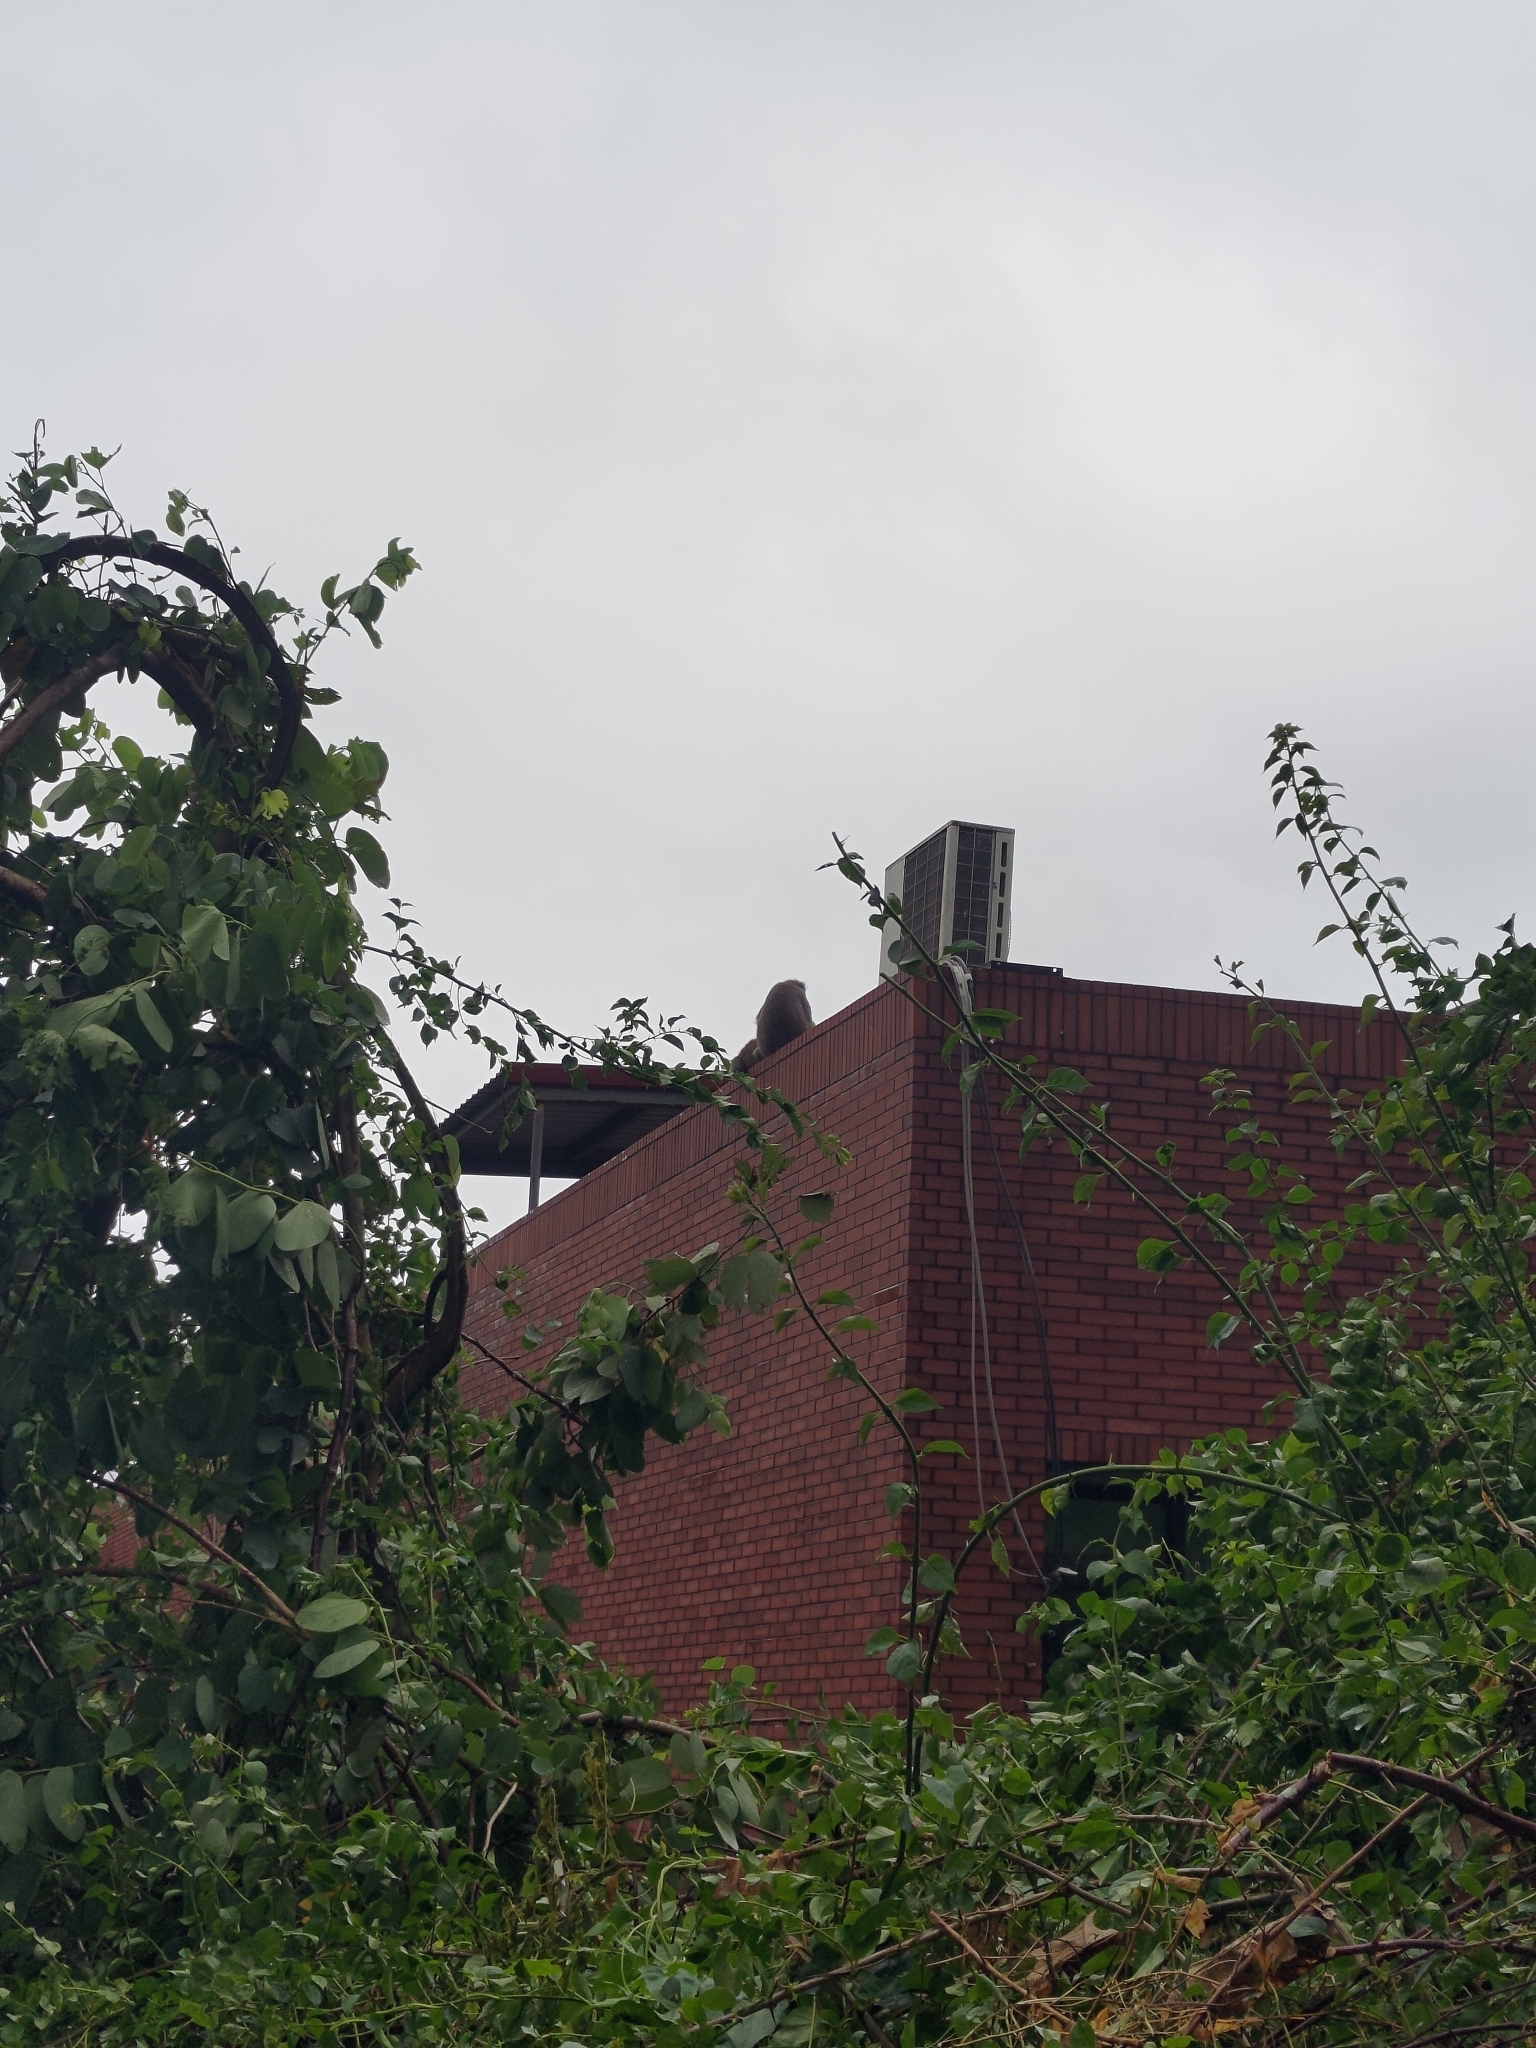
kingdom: Animalia
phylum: Chordata
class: Mammalia
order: Primates
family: Cercopithecidae
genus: Macaca
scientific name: Macaca cyclopis
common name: Formosan rock macaque
